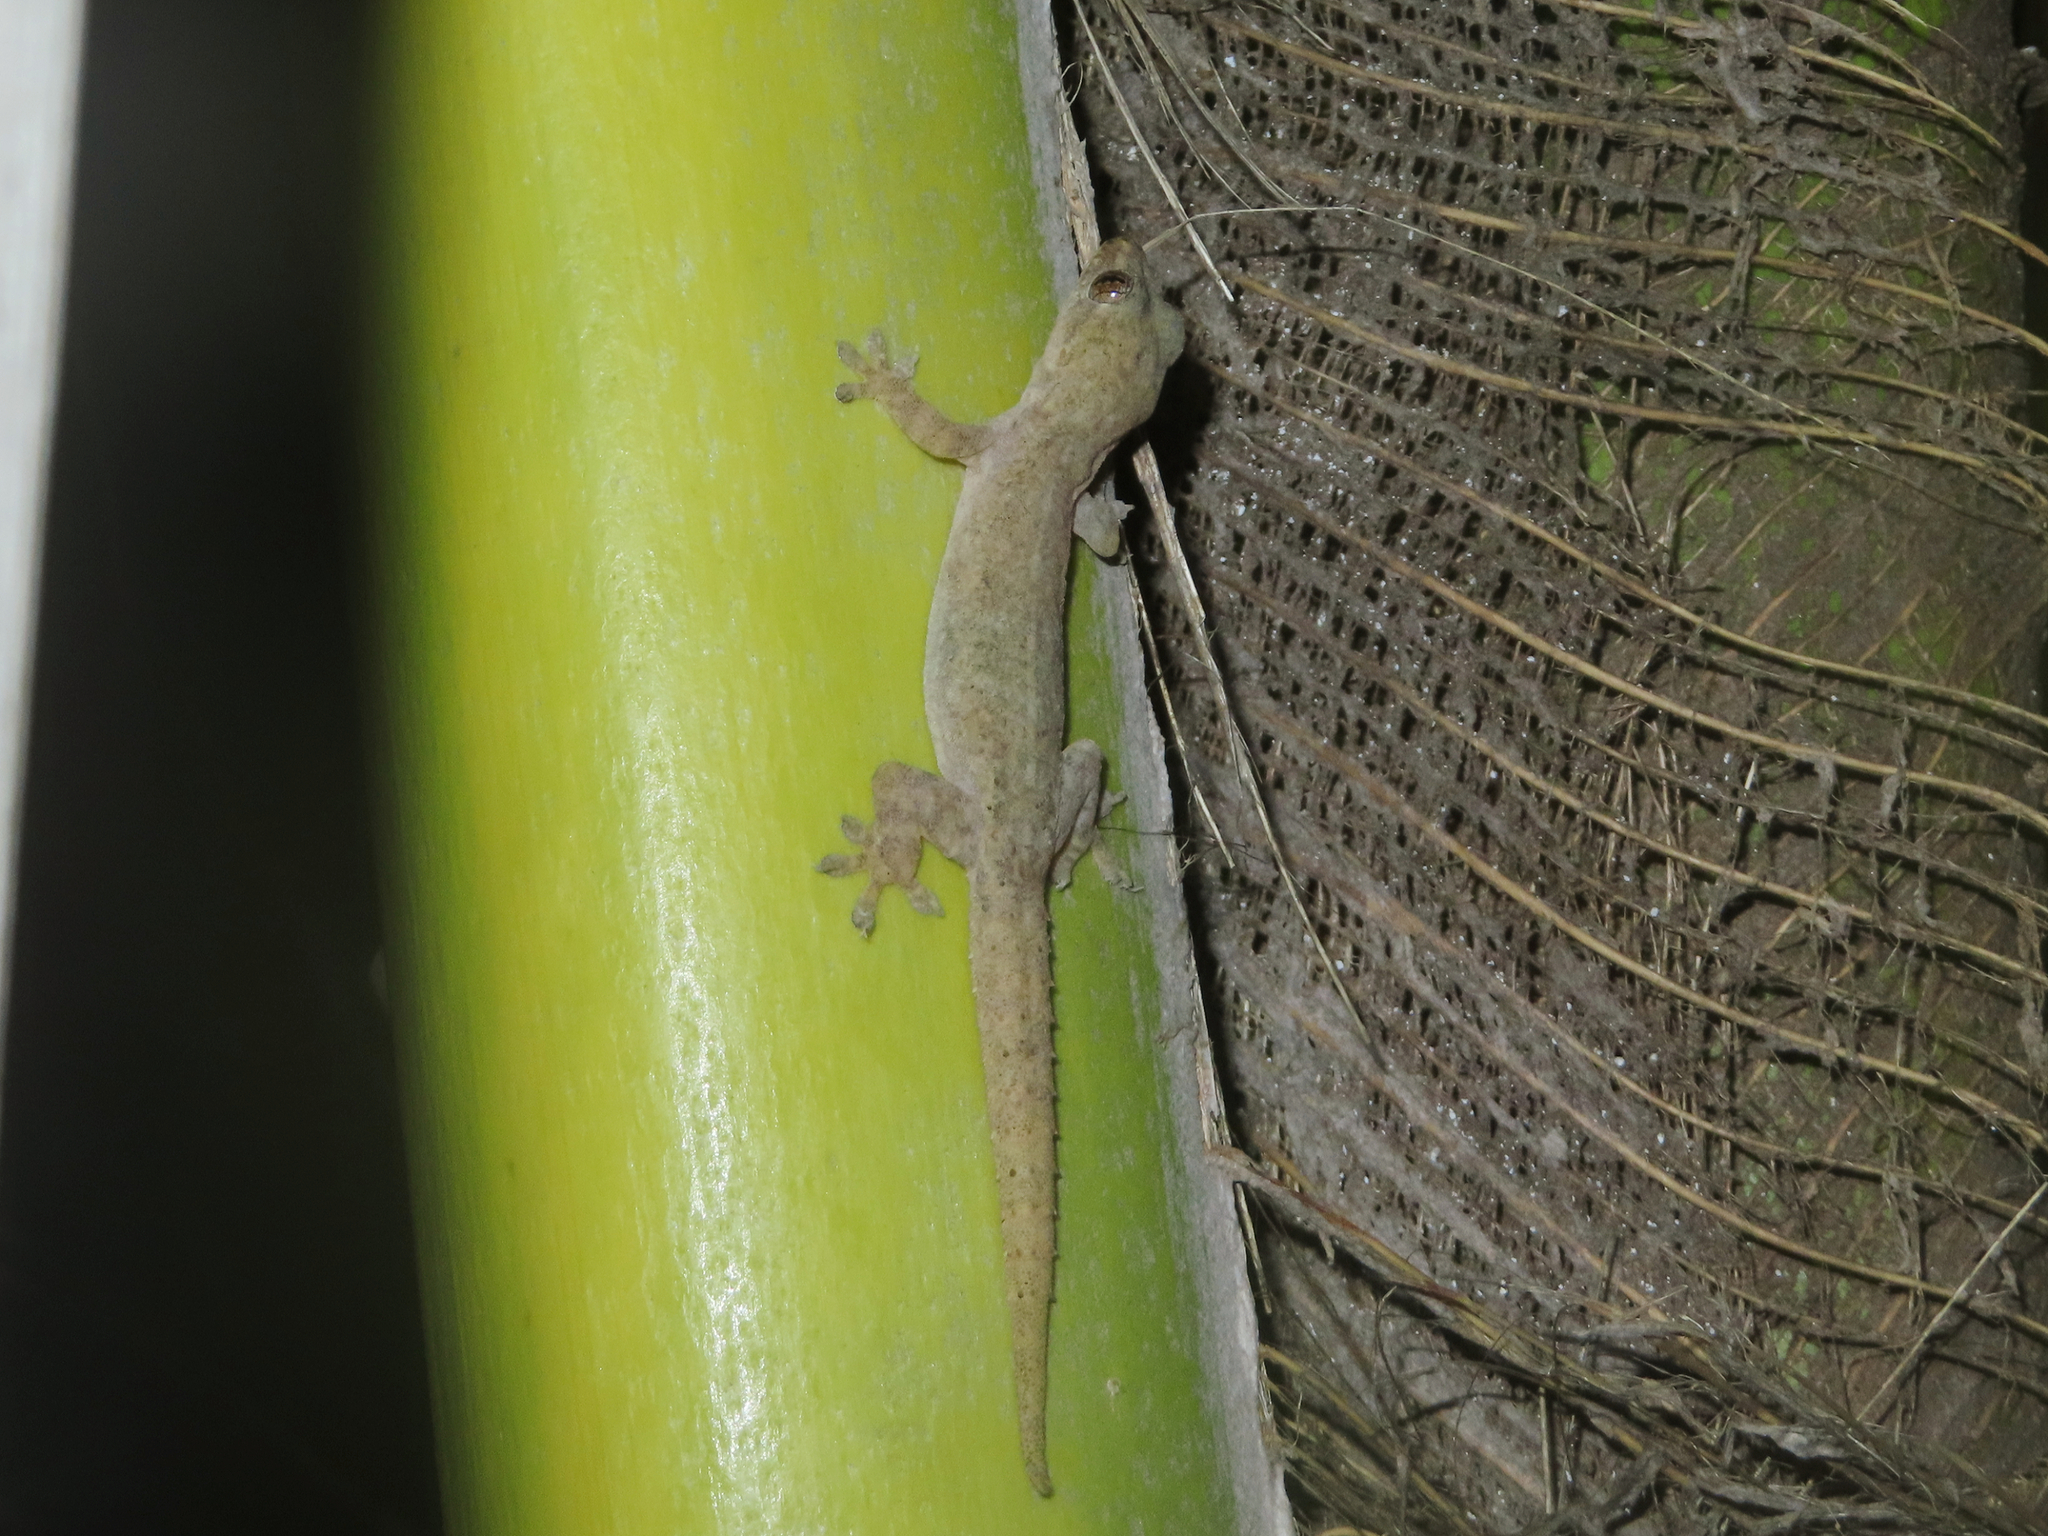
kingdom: Animalia
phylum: Chordata
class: Squamata
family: Gekkonidae
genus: Hemidactylus
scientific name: Hemidactylus frenatus
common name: Common house gecko
